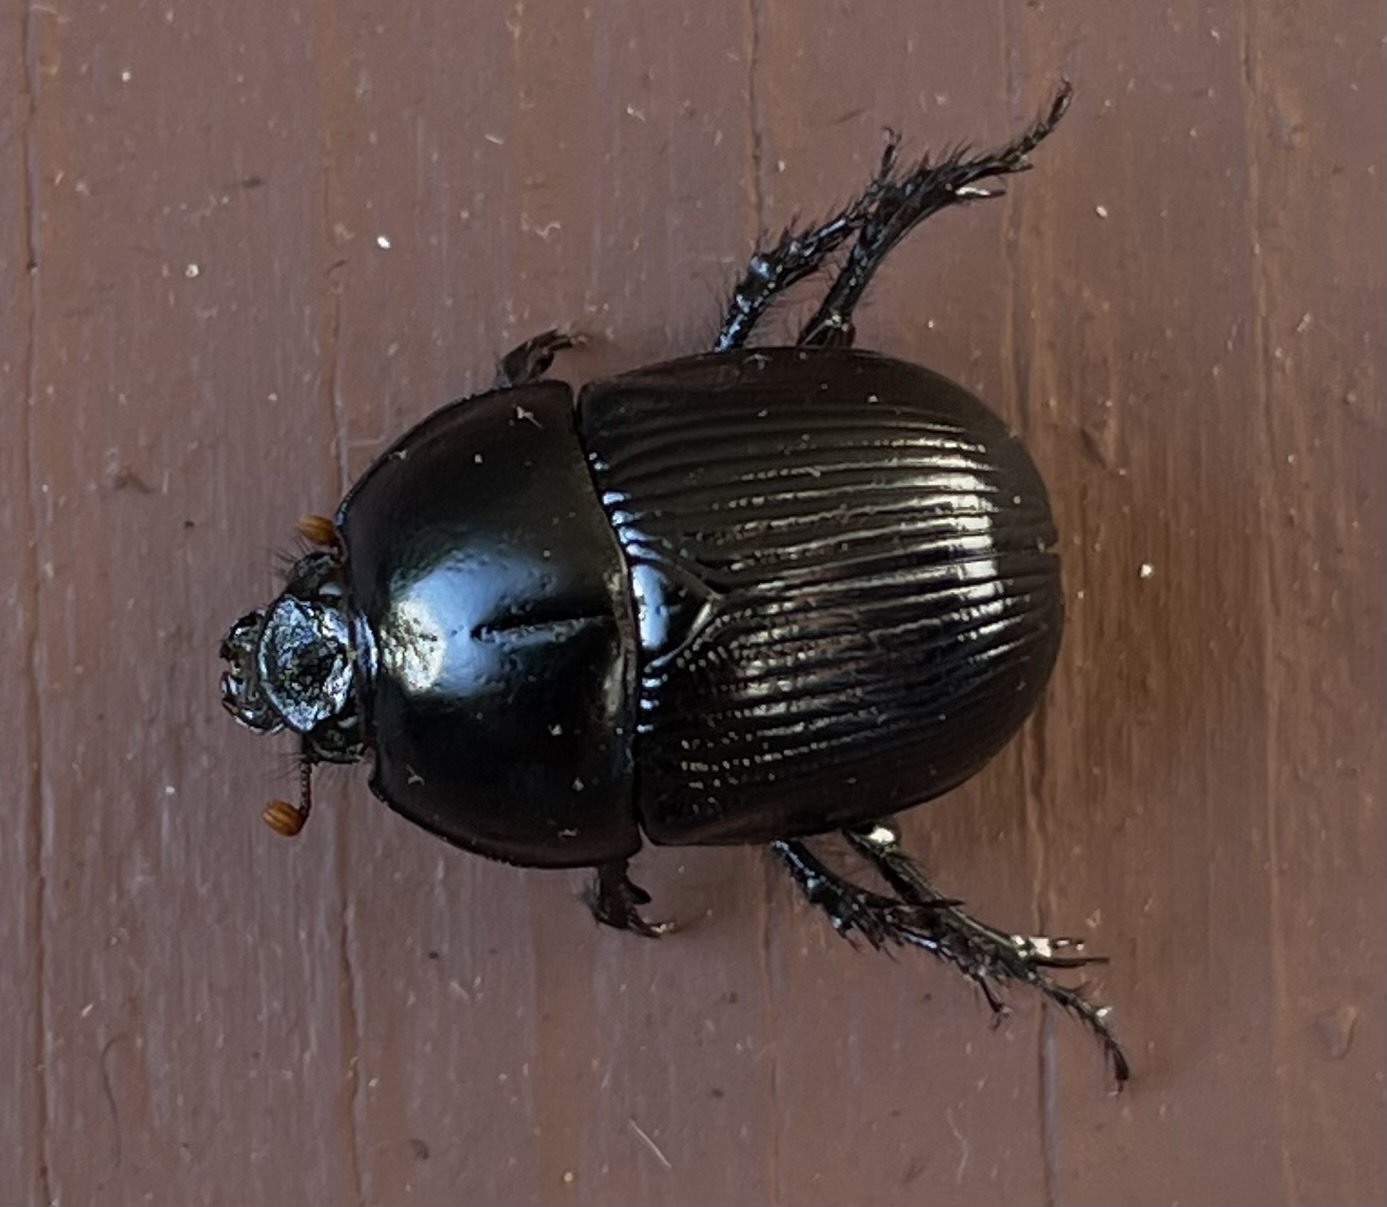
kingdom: Animalia
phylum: Arthropoda
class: Insecta
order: Coleoptera
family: Geotrupidae
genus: Anoplotrupes
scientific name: Anoplotrupes hornii
